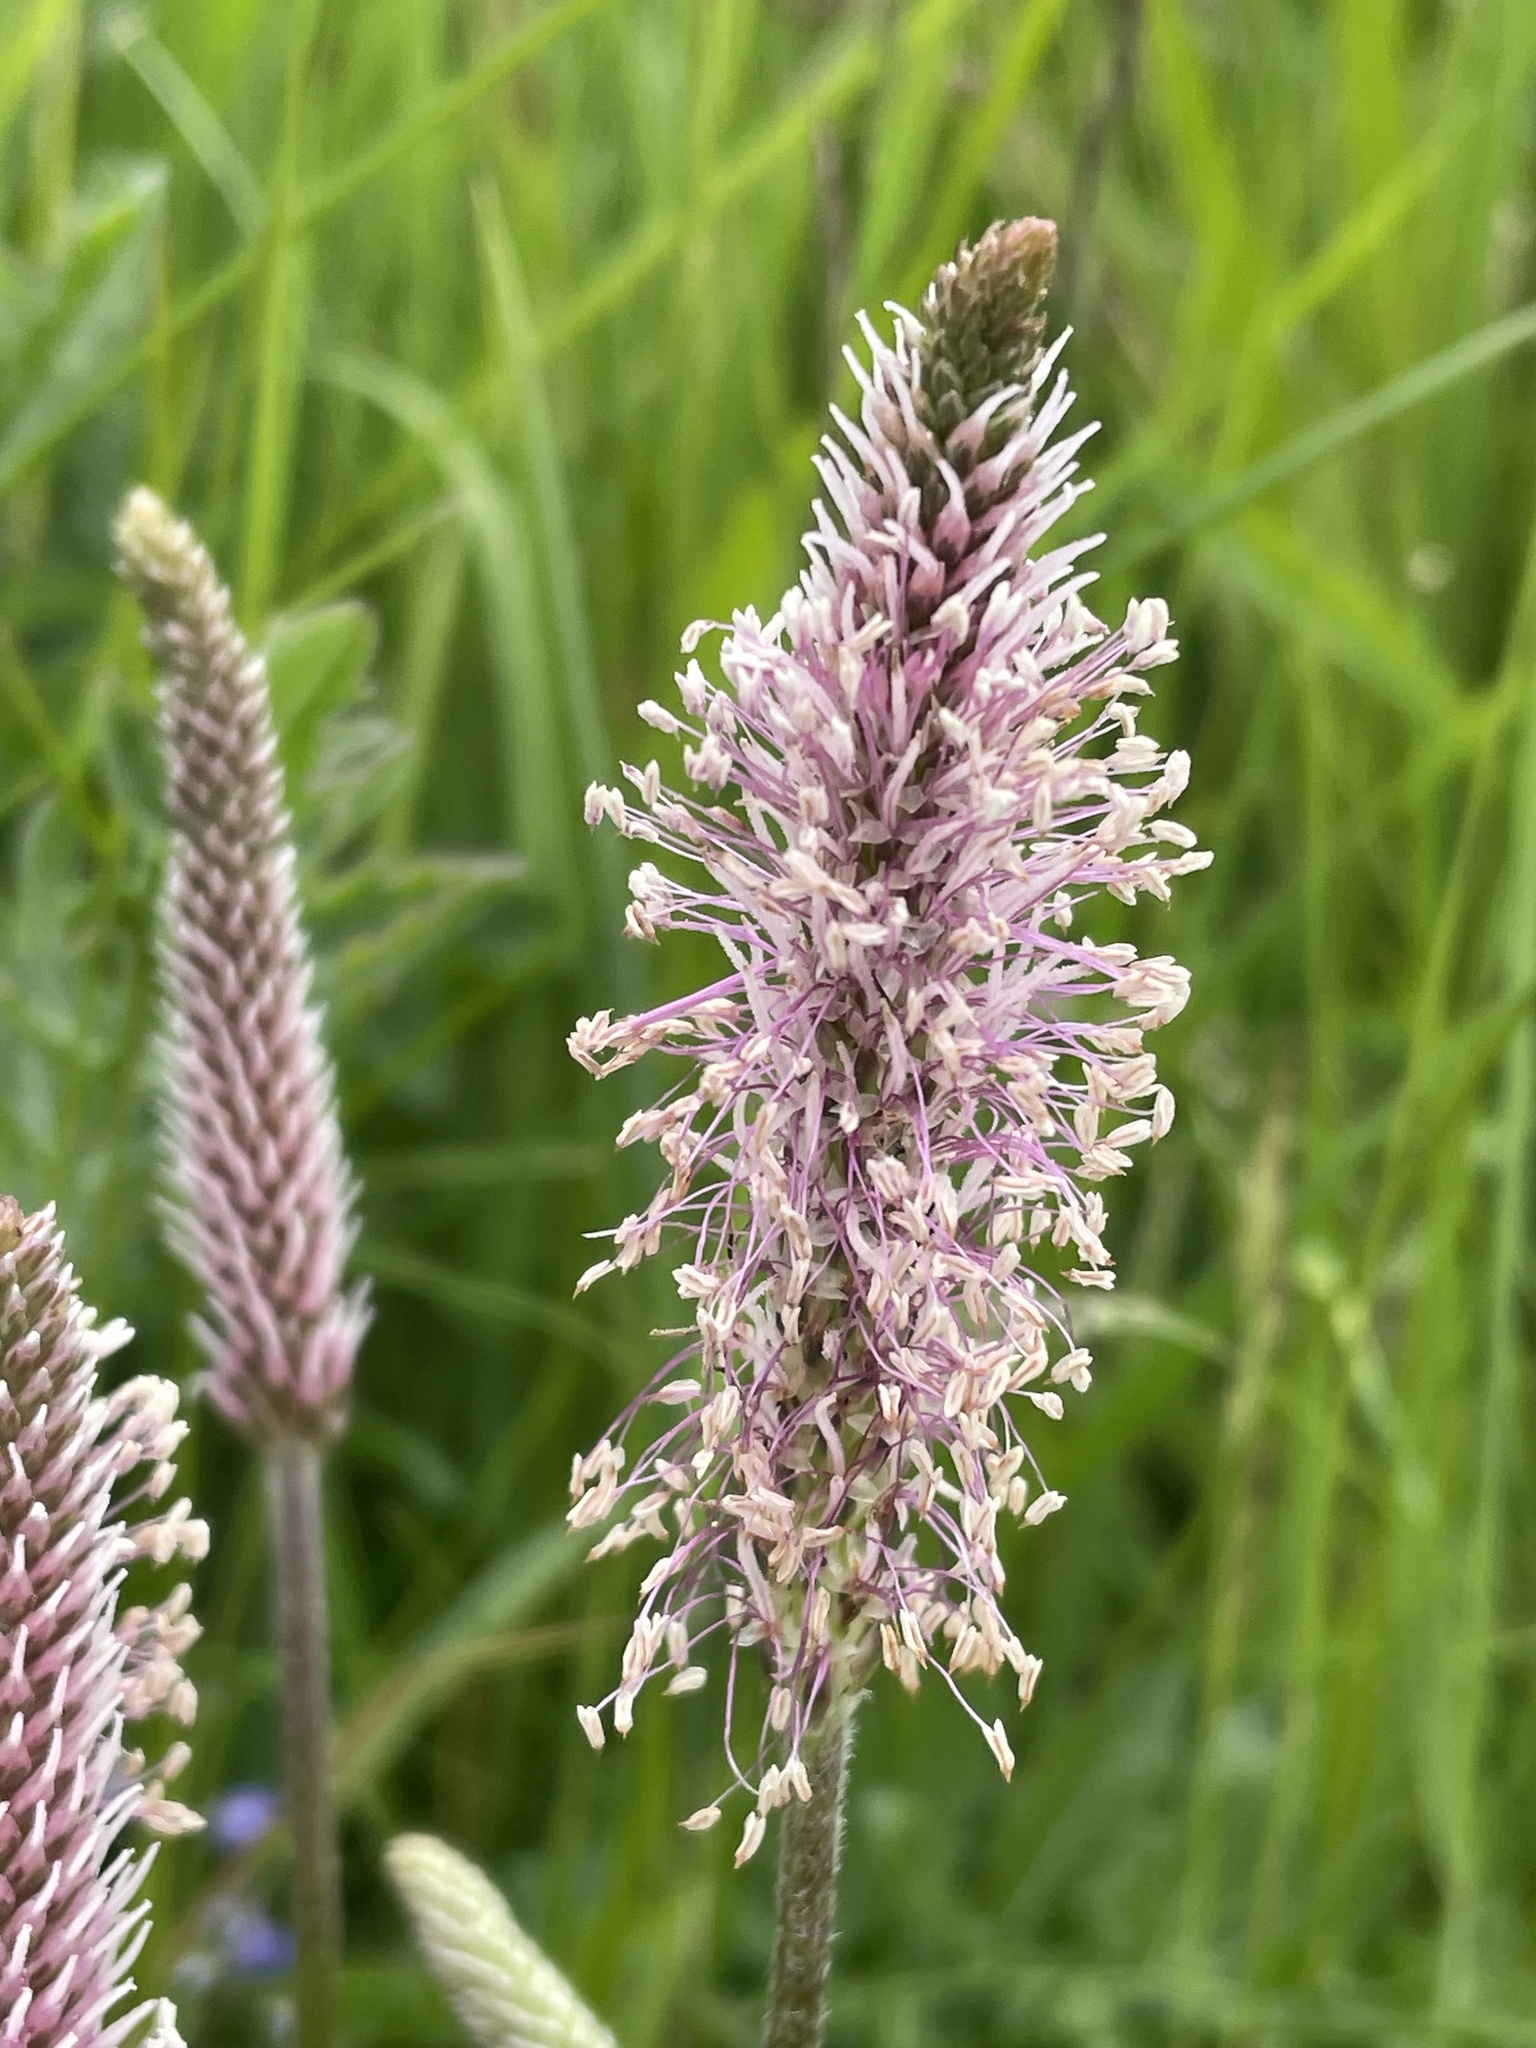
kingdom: Plantae
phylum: Tracheophyta
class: Magnoliopsida
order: Lamiales
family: Plantaginaceae
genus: Plantago
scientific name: Plantago media
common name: Hoary plantain
